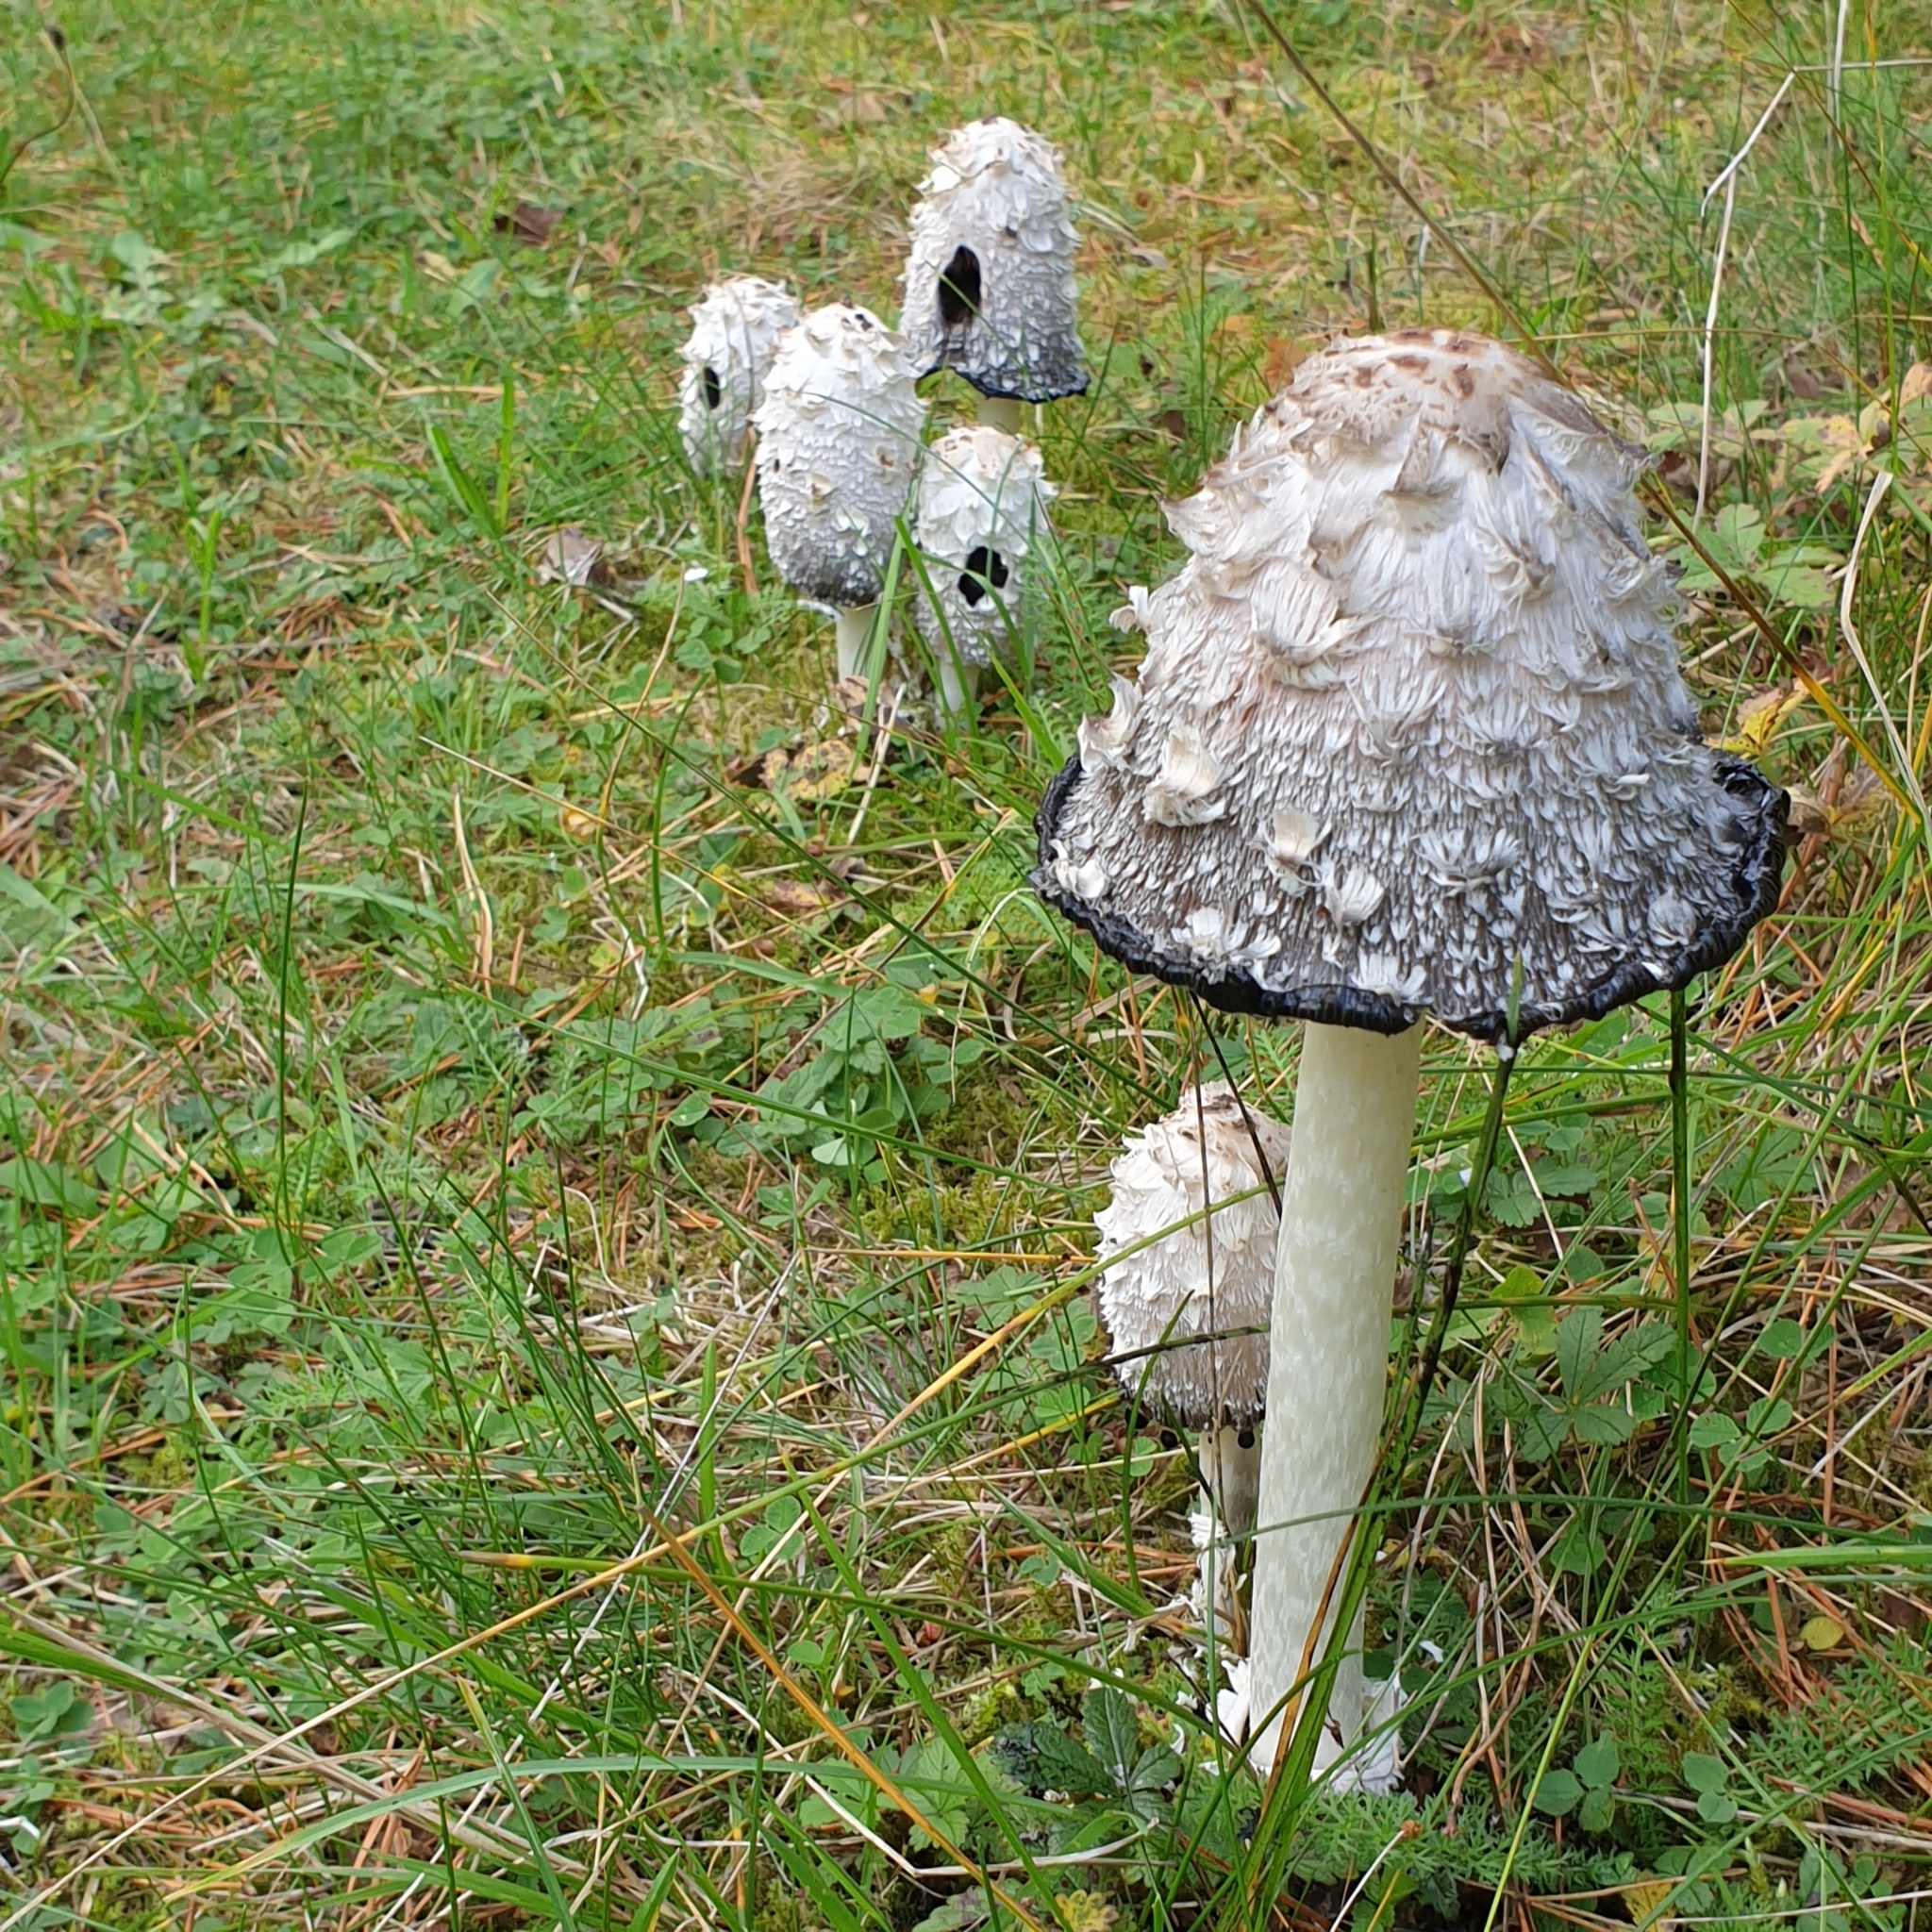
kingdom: Fungi
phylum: Basidiomycota
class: Agaricomycetes
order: Agaricales
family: Agaricaceae
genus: Coprinus
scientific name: Coprinus comatus
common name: Lawyer's wig
